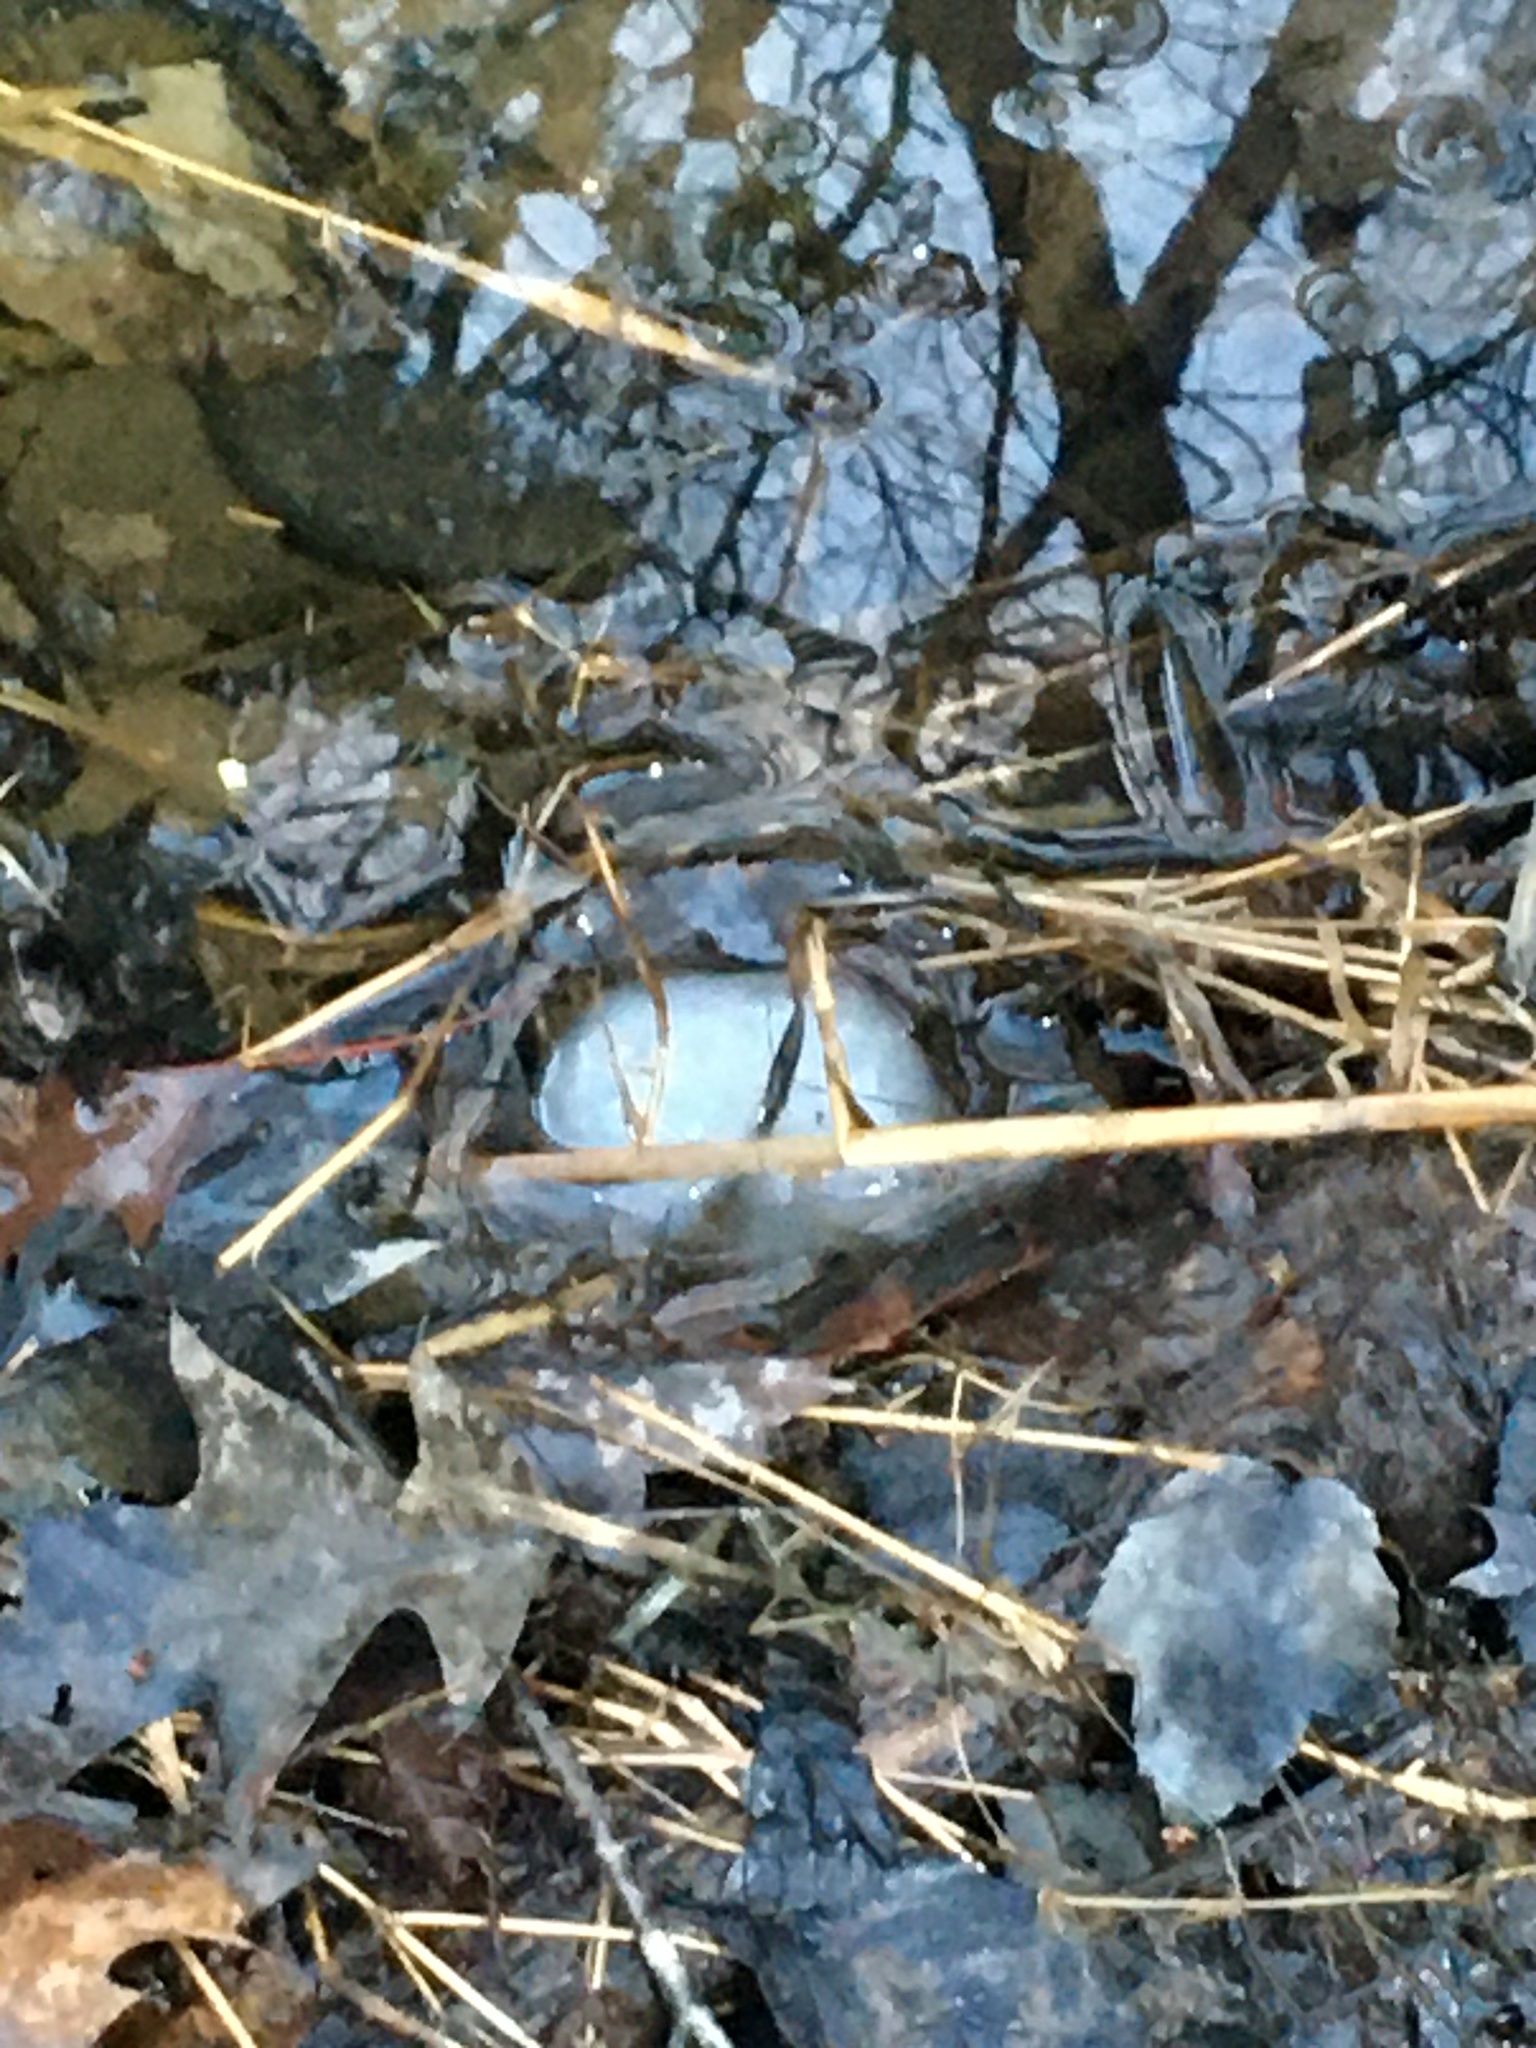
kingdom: Animalia
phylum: Chordata
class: Amphibia
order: Caudata
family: Ambystomatidae
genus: Ambystoma
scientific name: Ambystoma maculatum
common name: Spotted salamander
